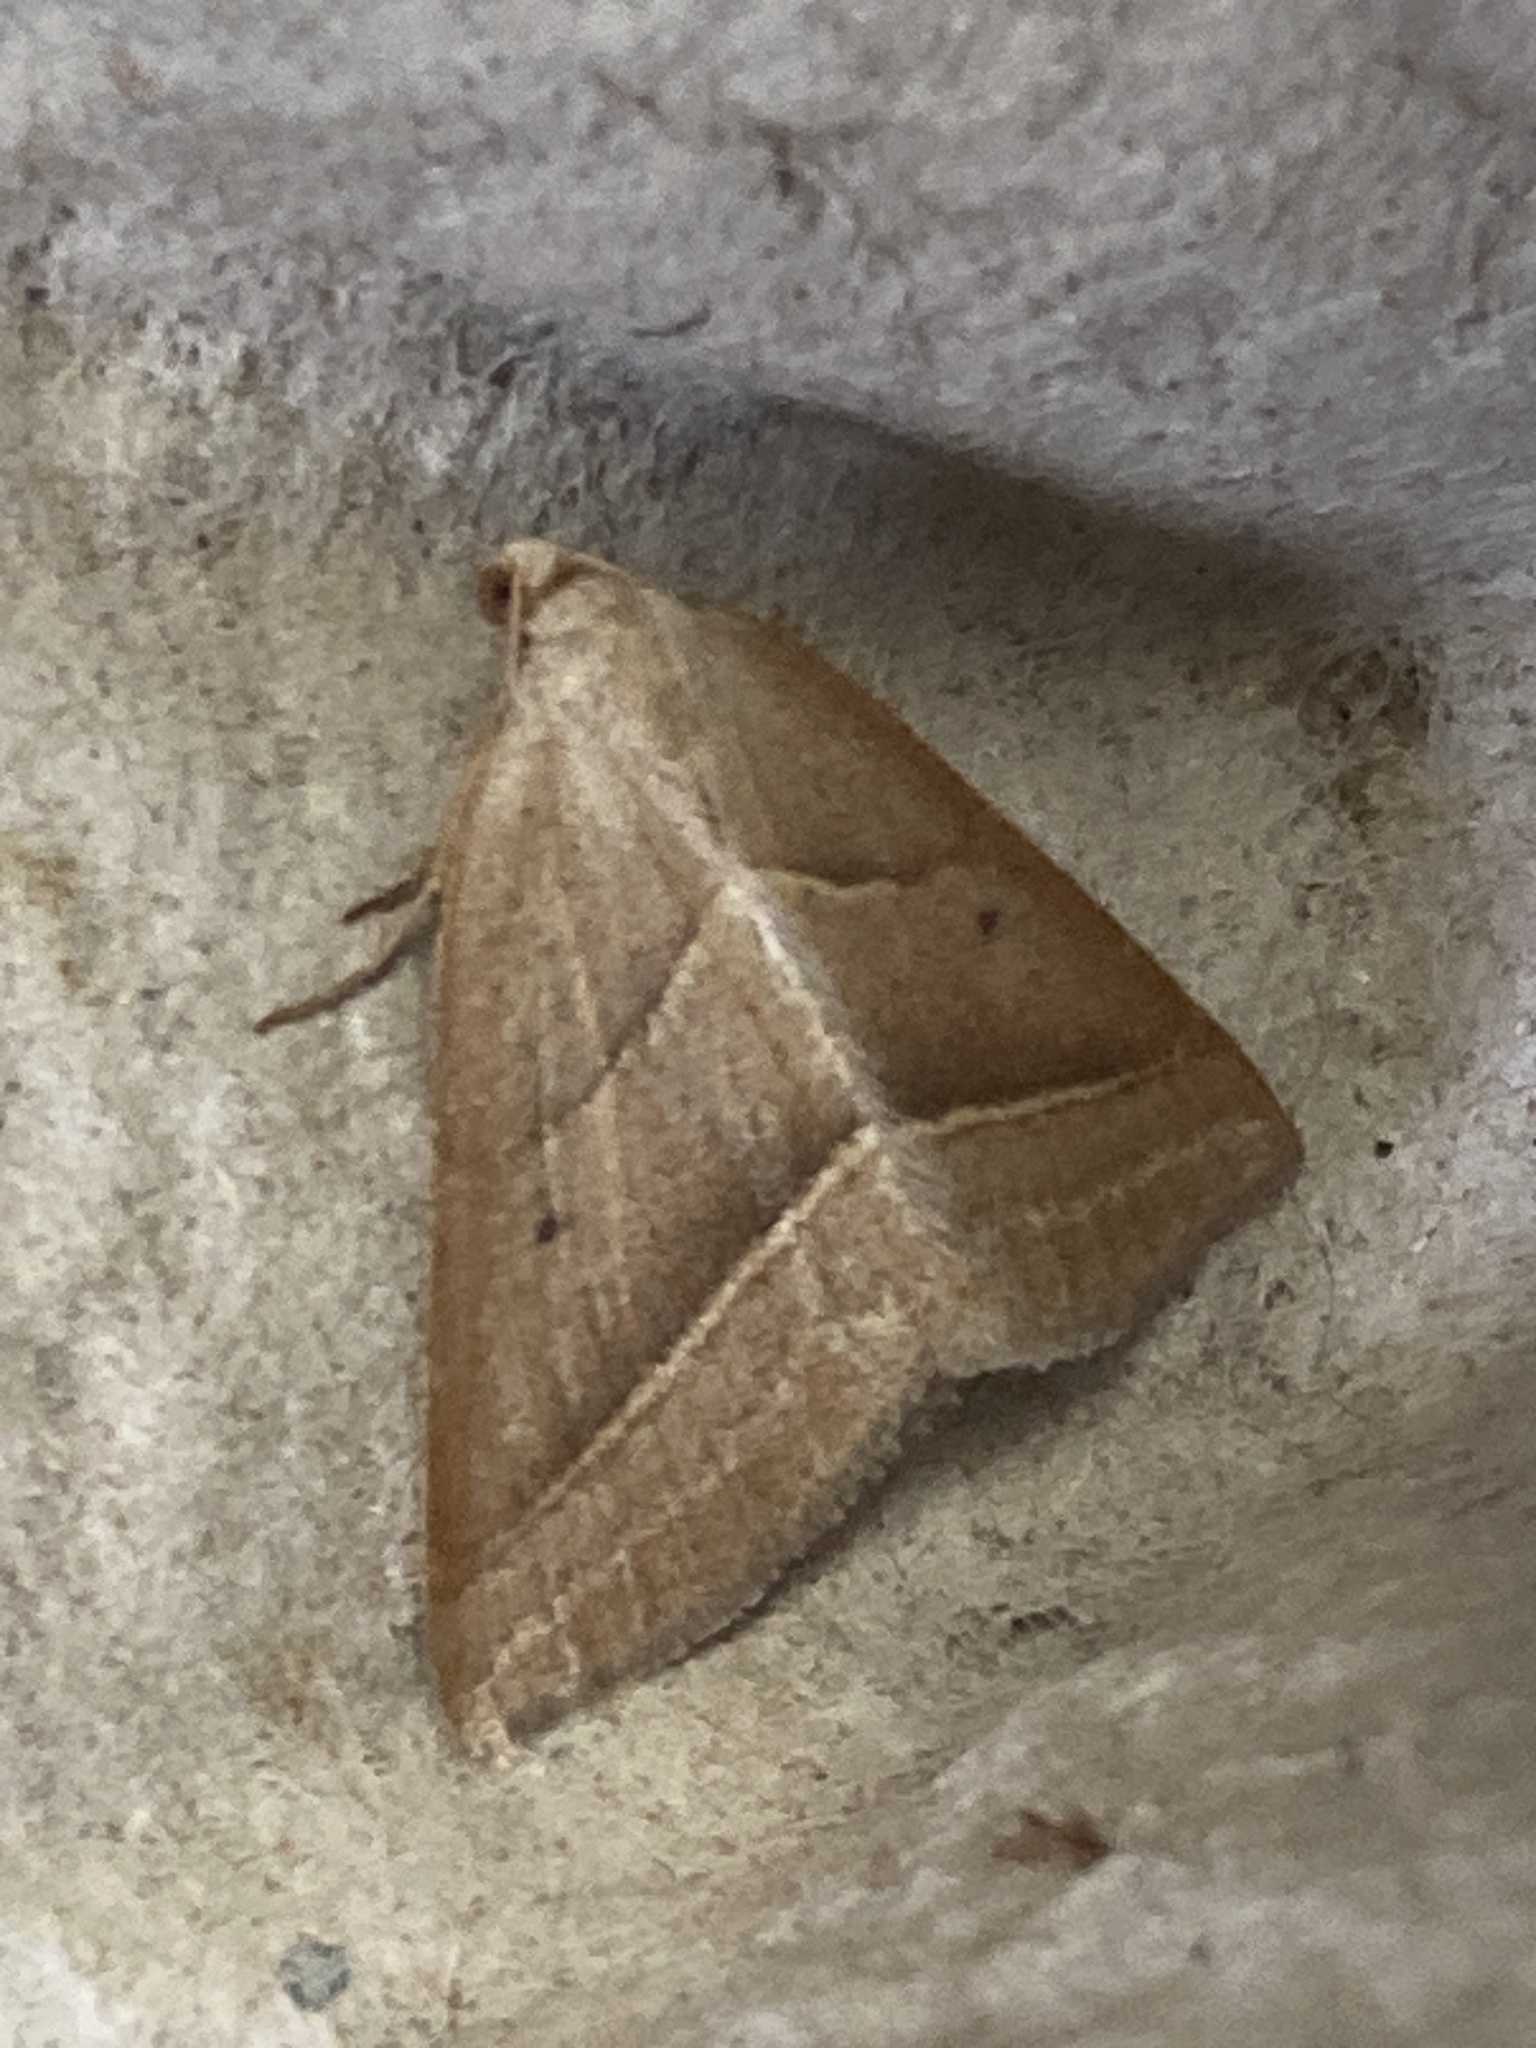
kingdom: Animalia
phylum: Arthropoda
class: Insecta
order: Lepidoptera
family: Pterophoridae
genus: Pterophorus
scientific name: Pterophorus Petrophora chlorosata
